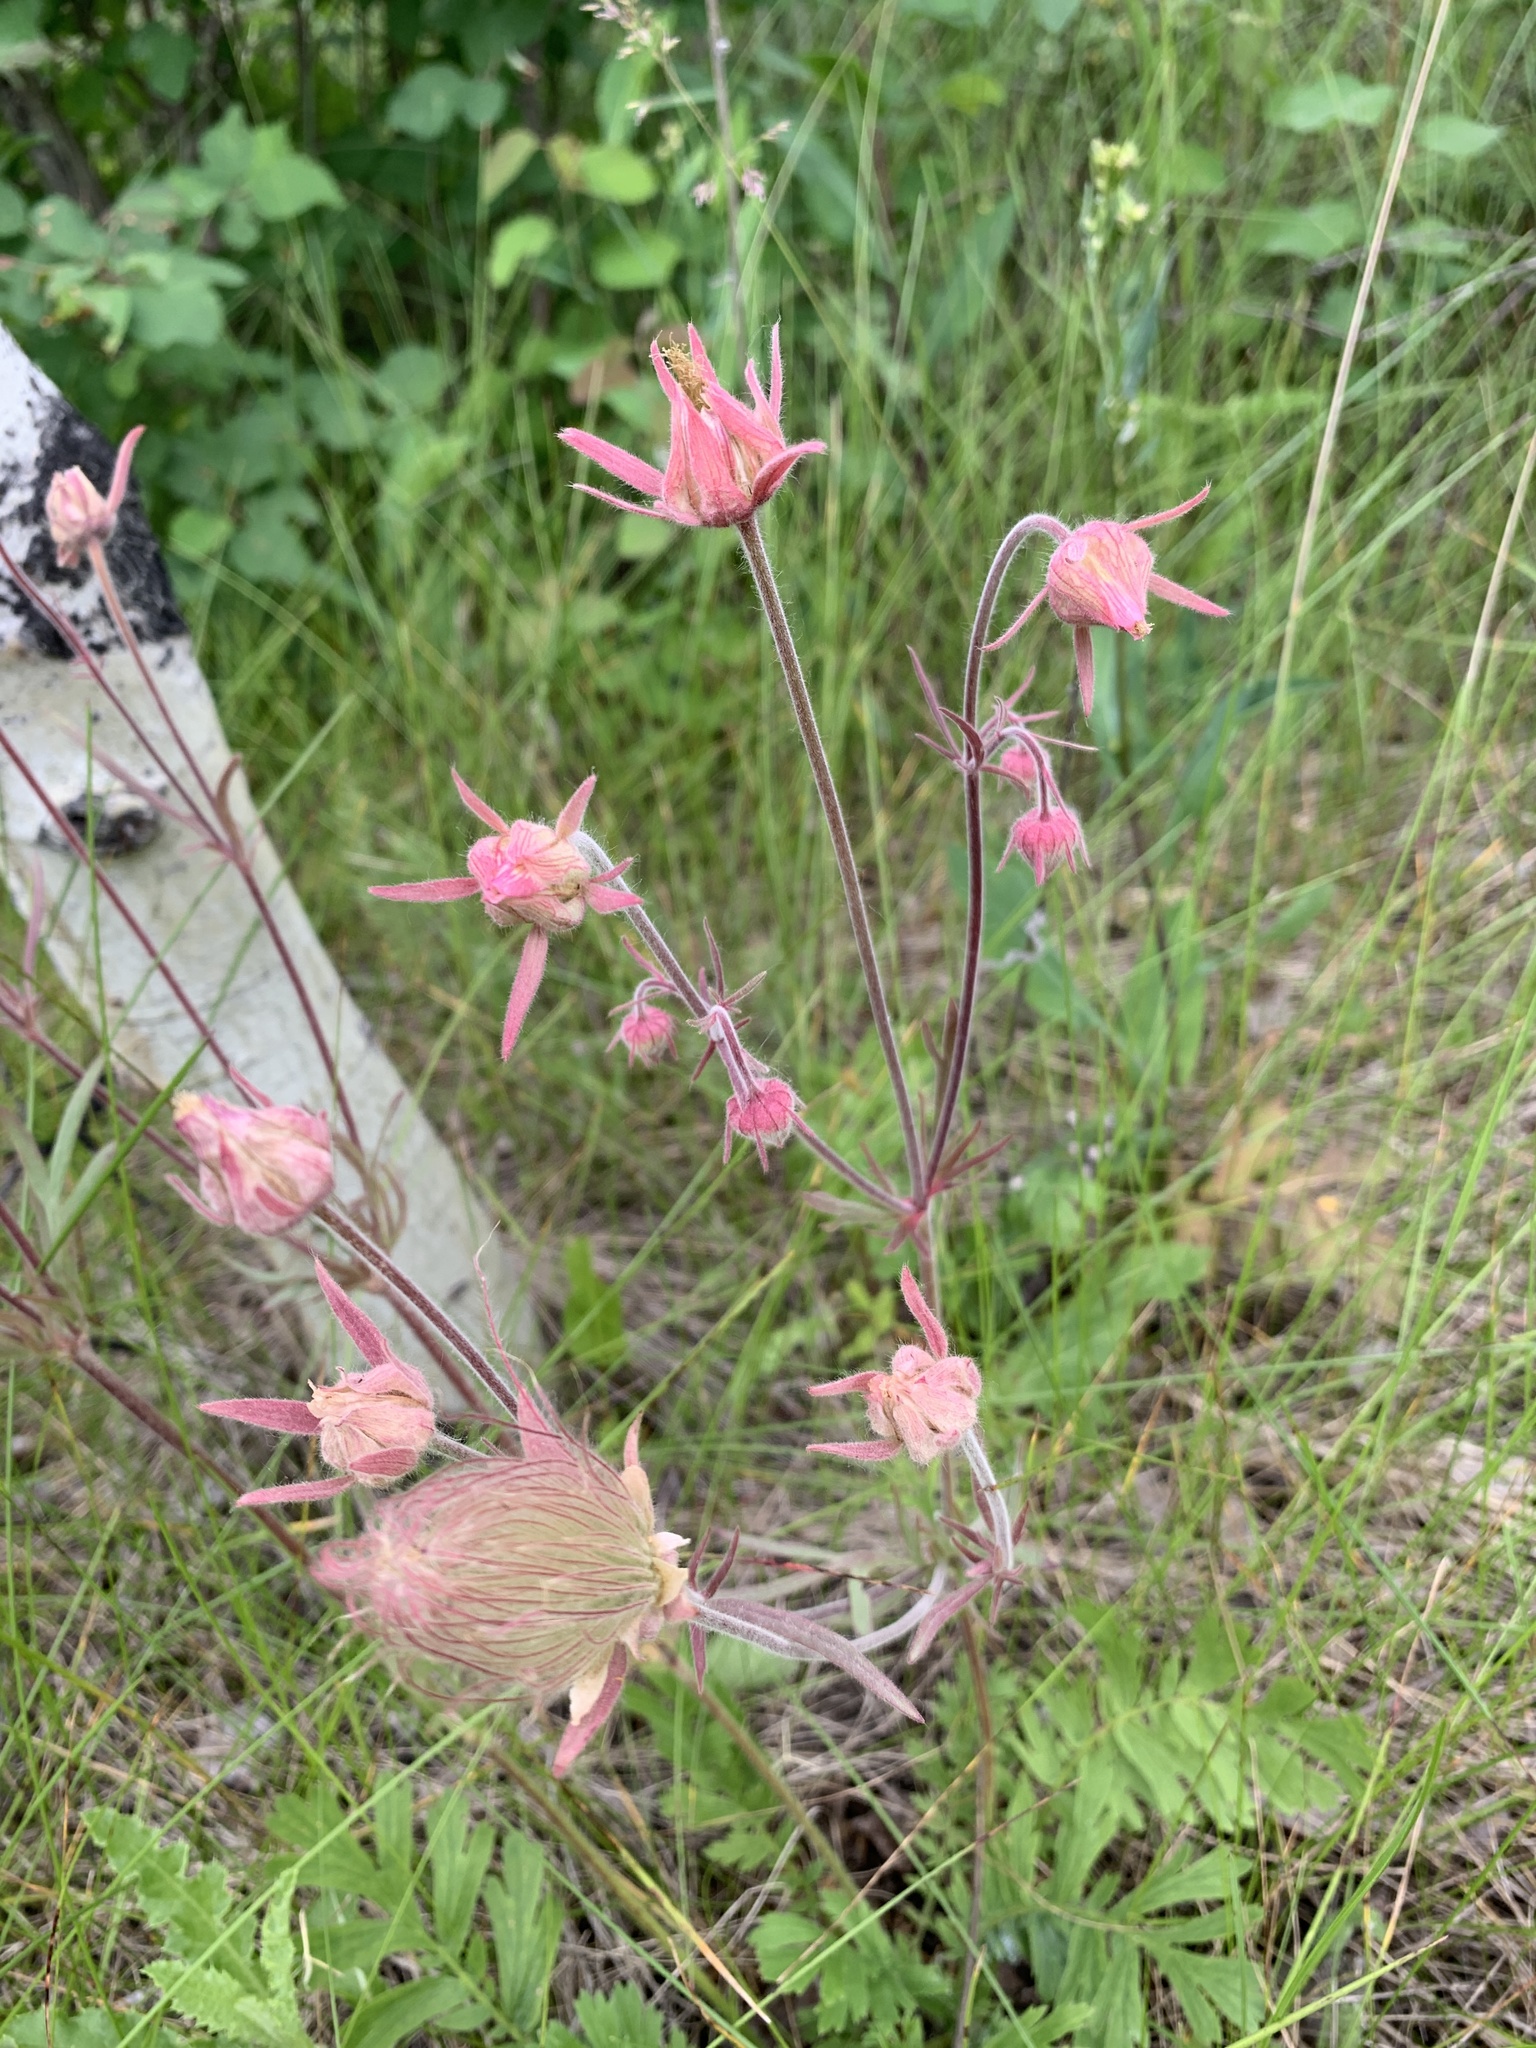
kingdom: Plantae
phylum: Tracheophyta
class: Magnoliopsida
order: Rosales
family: Rosaceae
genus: Geum
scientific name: Geum triflorum
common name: Old man's whiskers
